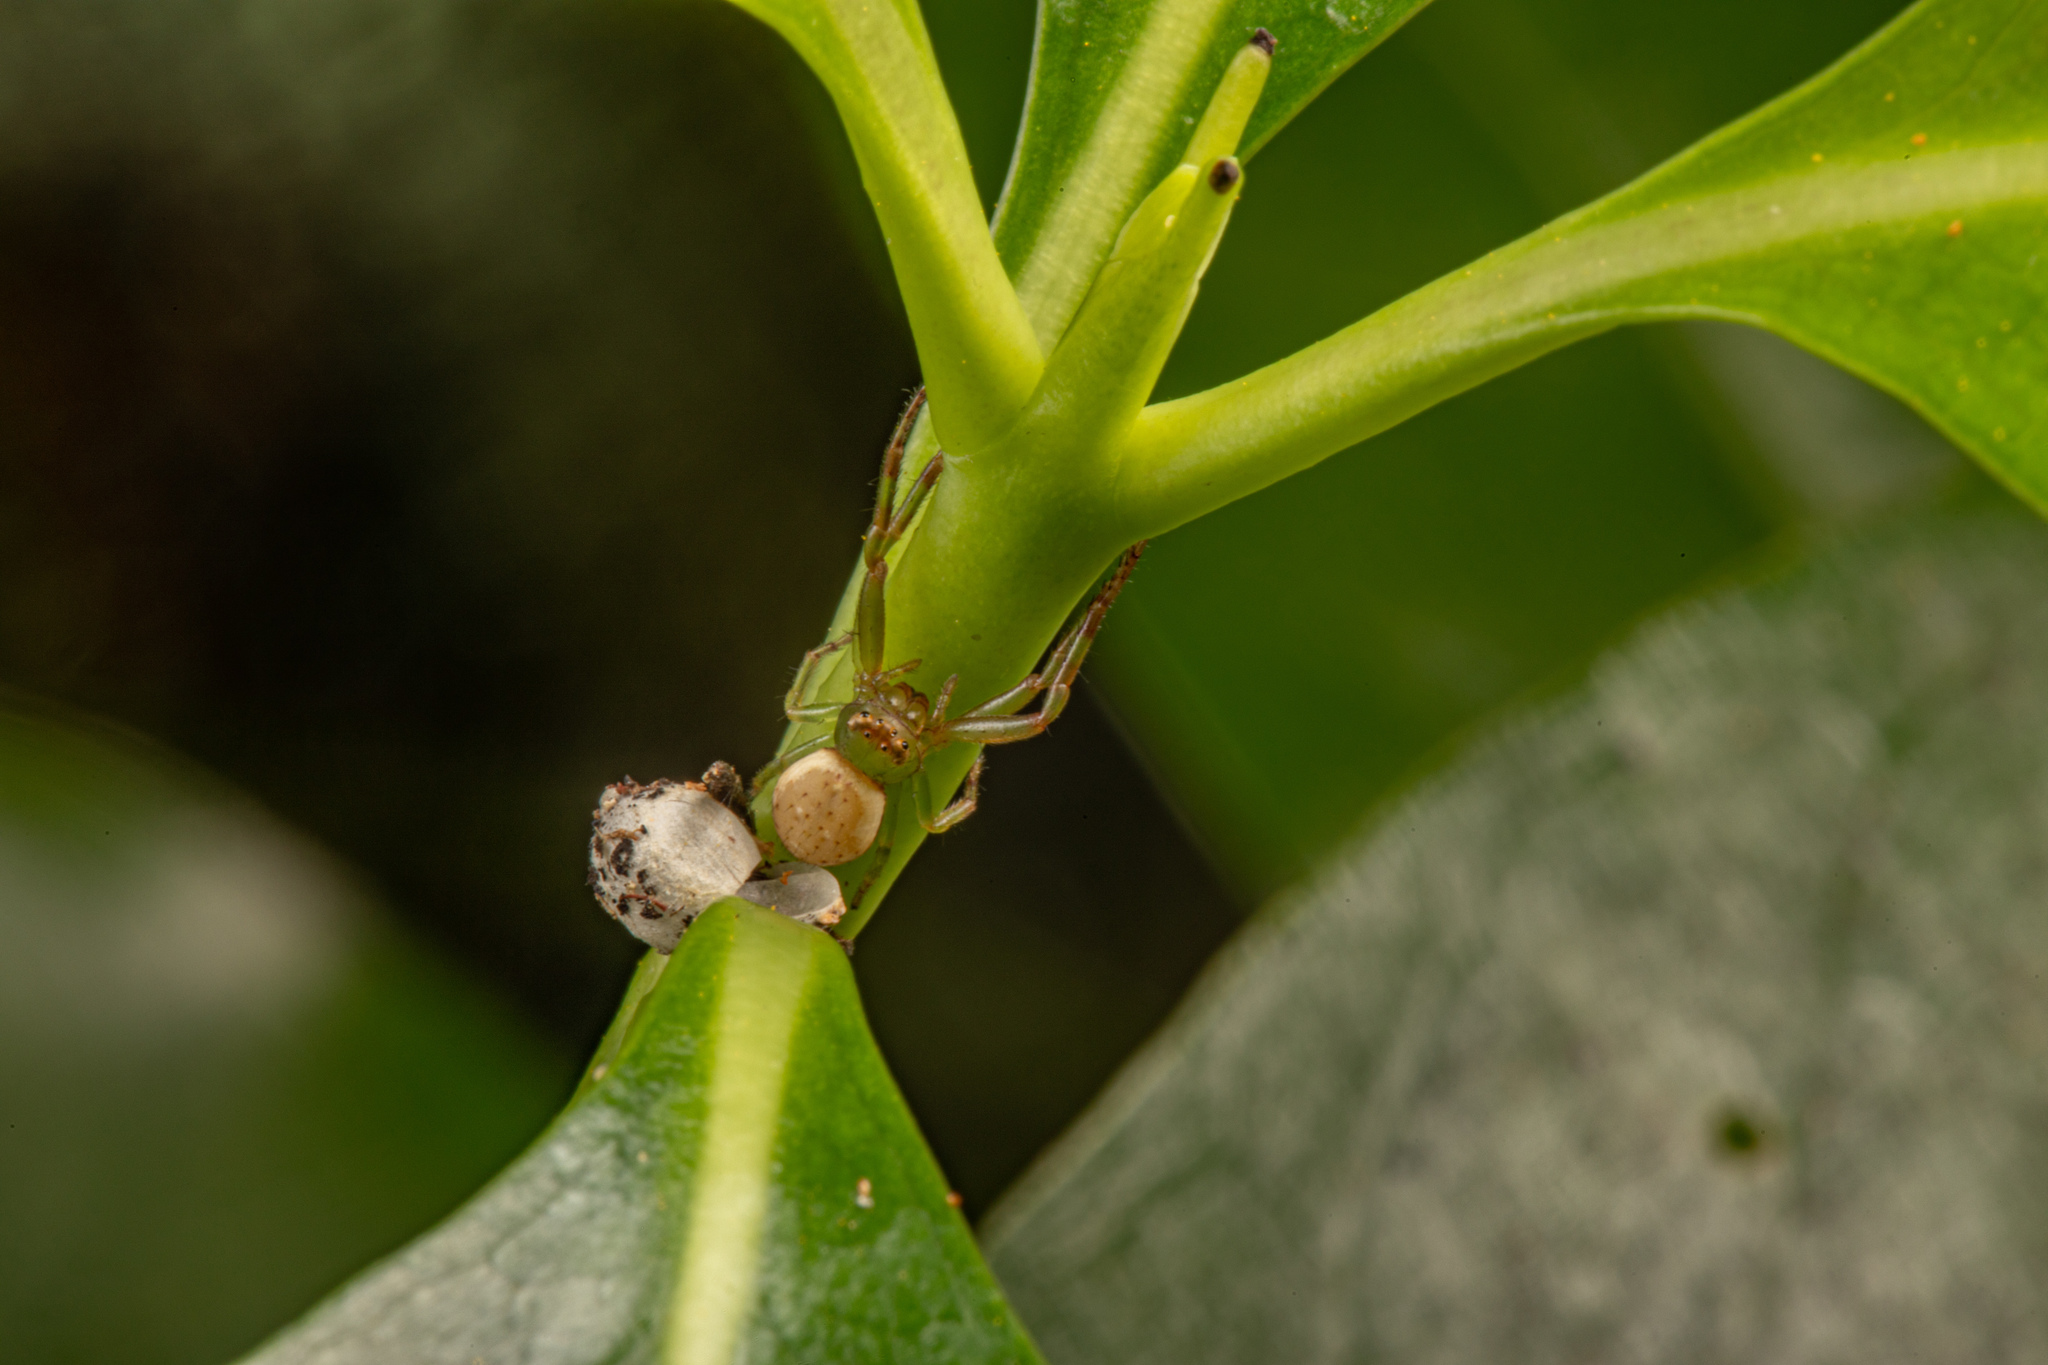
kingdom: Animalia
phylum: Arthropoda
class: Arachnida
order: Araneae
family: Thomisidae
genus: Diaea
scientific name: Diaea ambara
